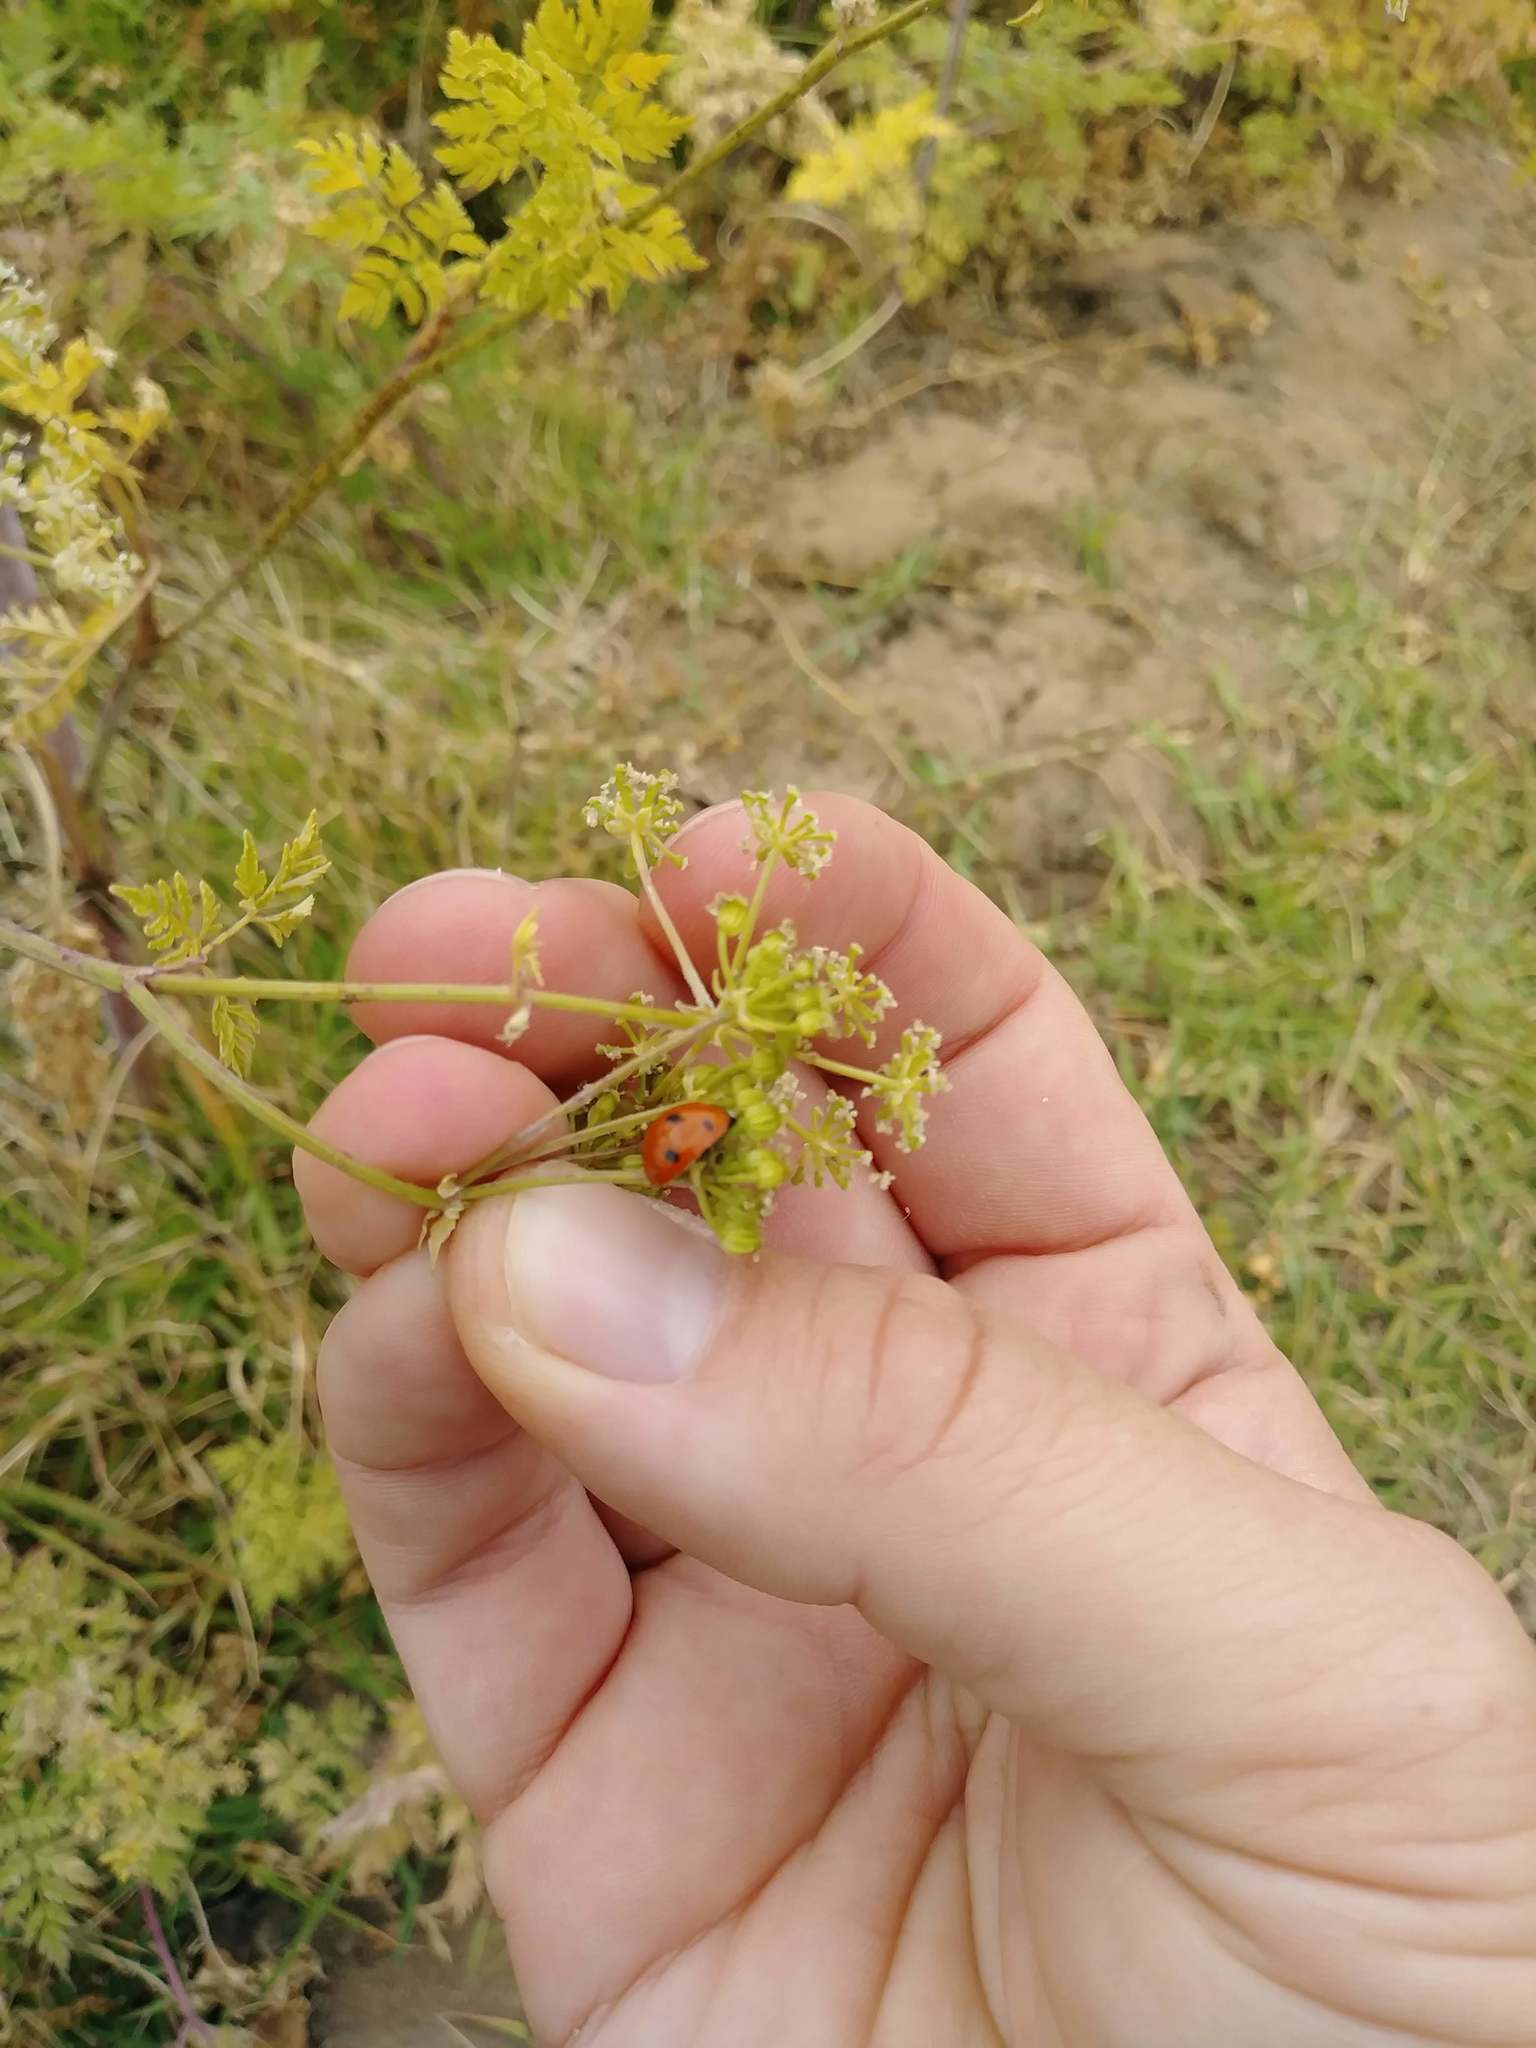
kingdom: Animalia
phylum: Arthropoda
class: Insecta
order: Coleoptera
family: Coccinellidae
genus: Coccinella
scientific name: Coccinella septempunctata
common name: Sevenspotted lady beetle
